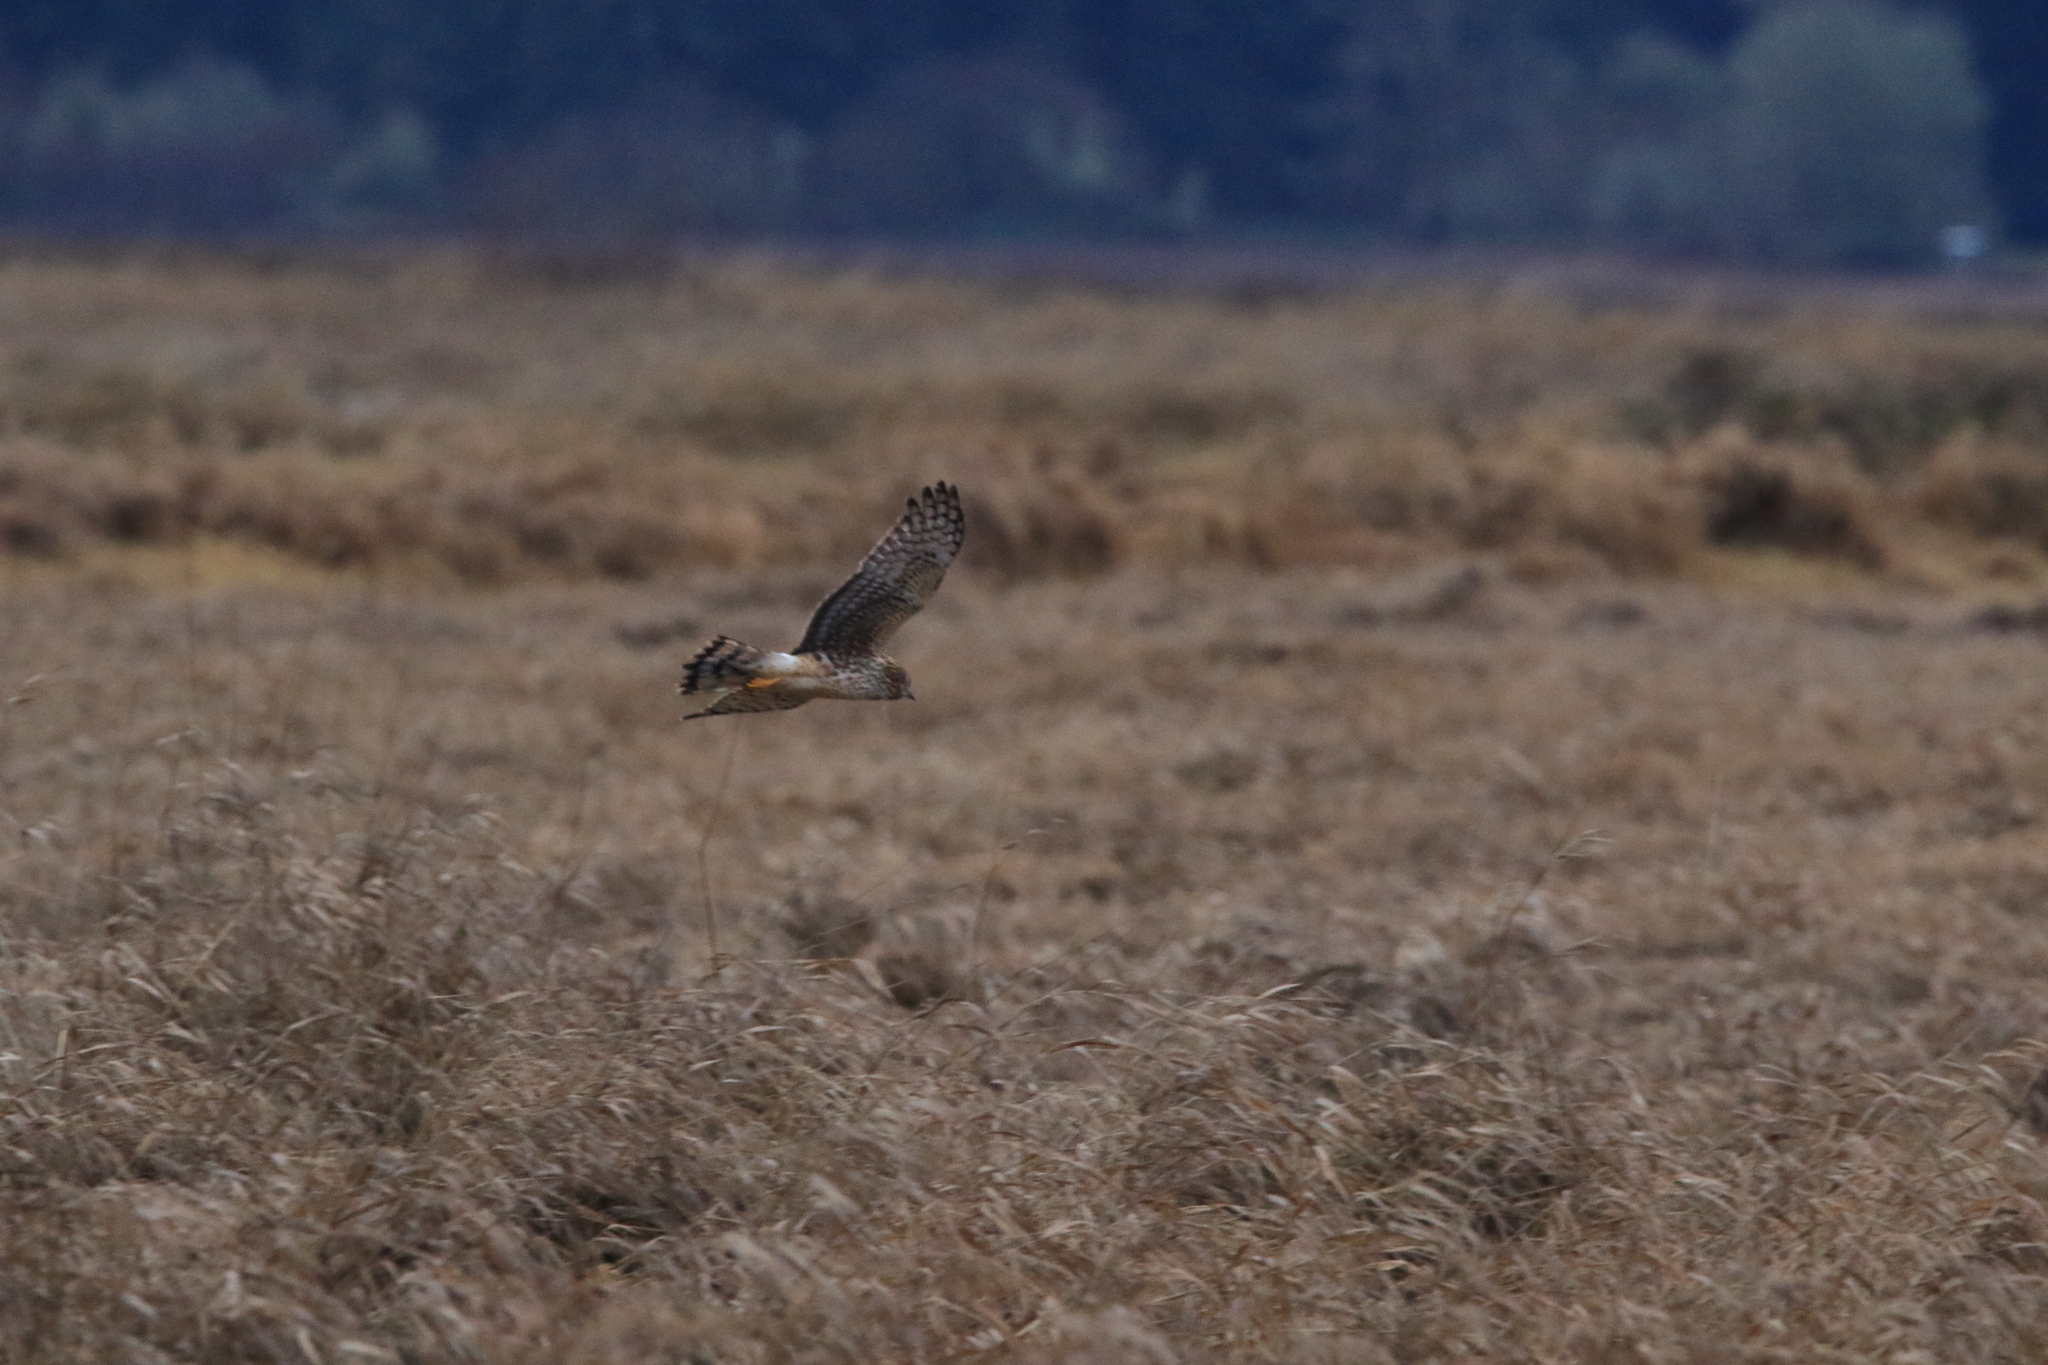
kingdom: Animalia
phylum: Chordata
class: Aves
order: Accipitriformes
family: Accipitridae
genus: Circus
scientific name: Circus cyaneus
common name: Hen harrier
